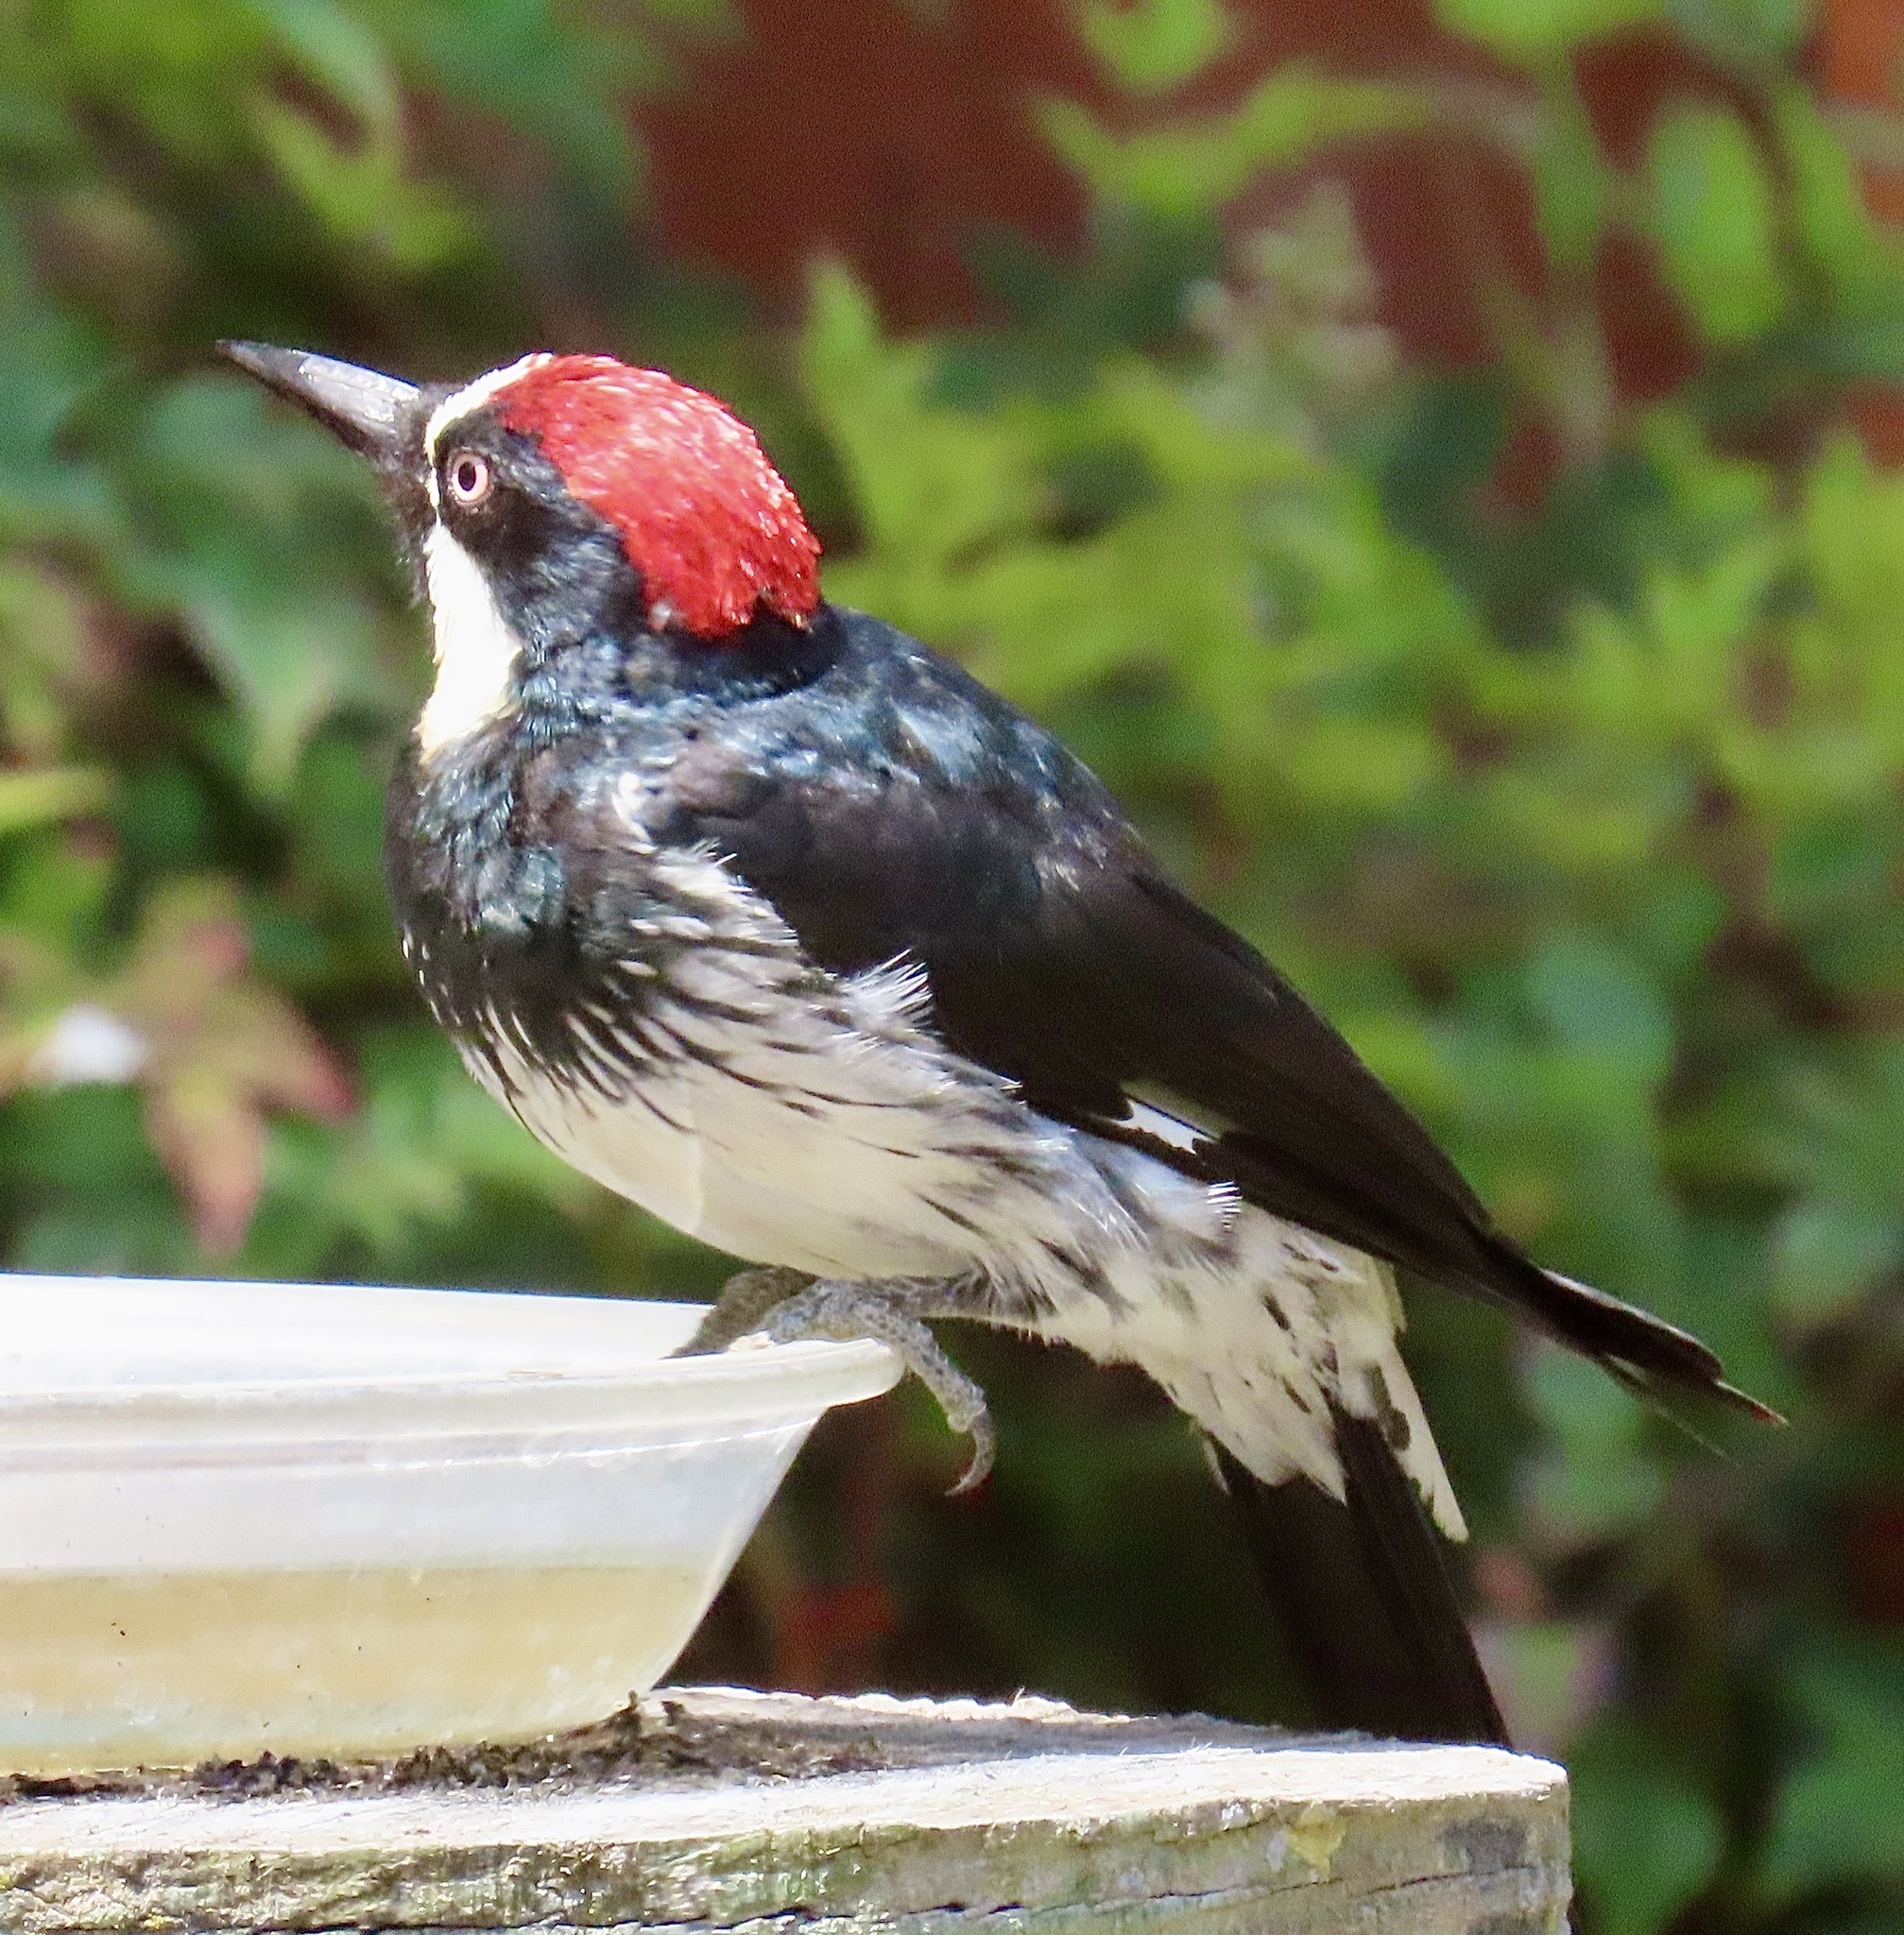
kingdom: Animalia
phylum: Chordata
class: Aves
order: Piciformes
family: Picidae
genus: Melanerpes
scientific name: Melanerpes formicivorus
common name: Acorn woodpecker
